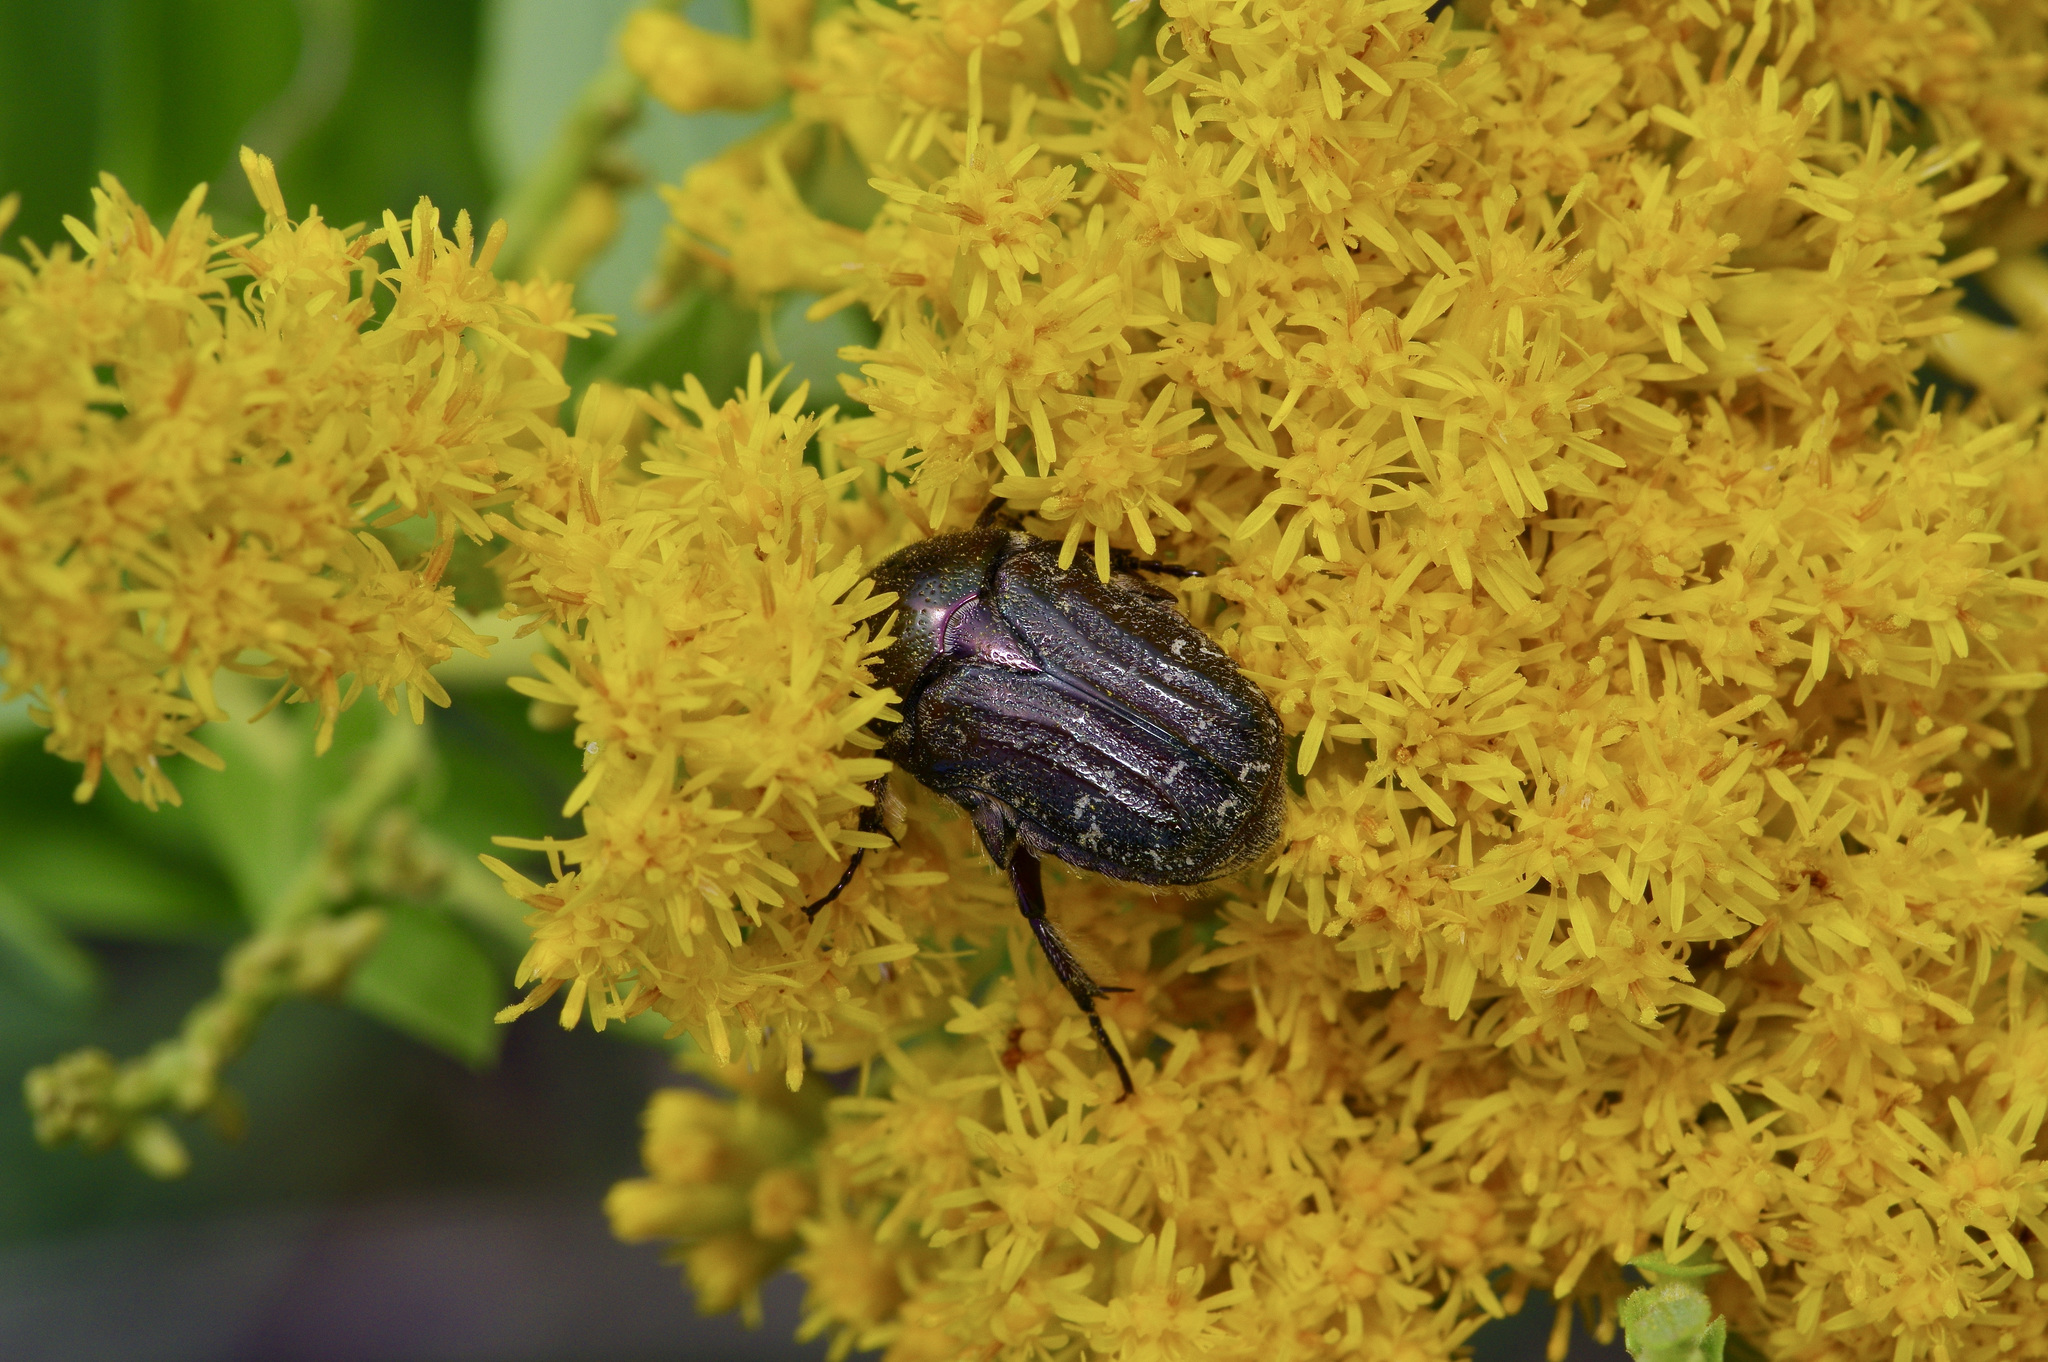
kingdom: Animalia
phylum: Arthropoda
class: Insecta
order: Coleoptera
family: Scarabaeidae
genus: Euphoria
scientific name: Euphoria sepulcralis
